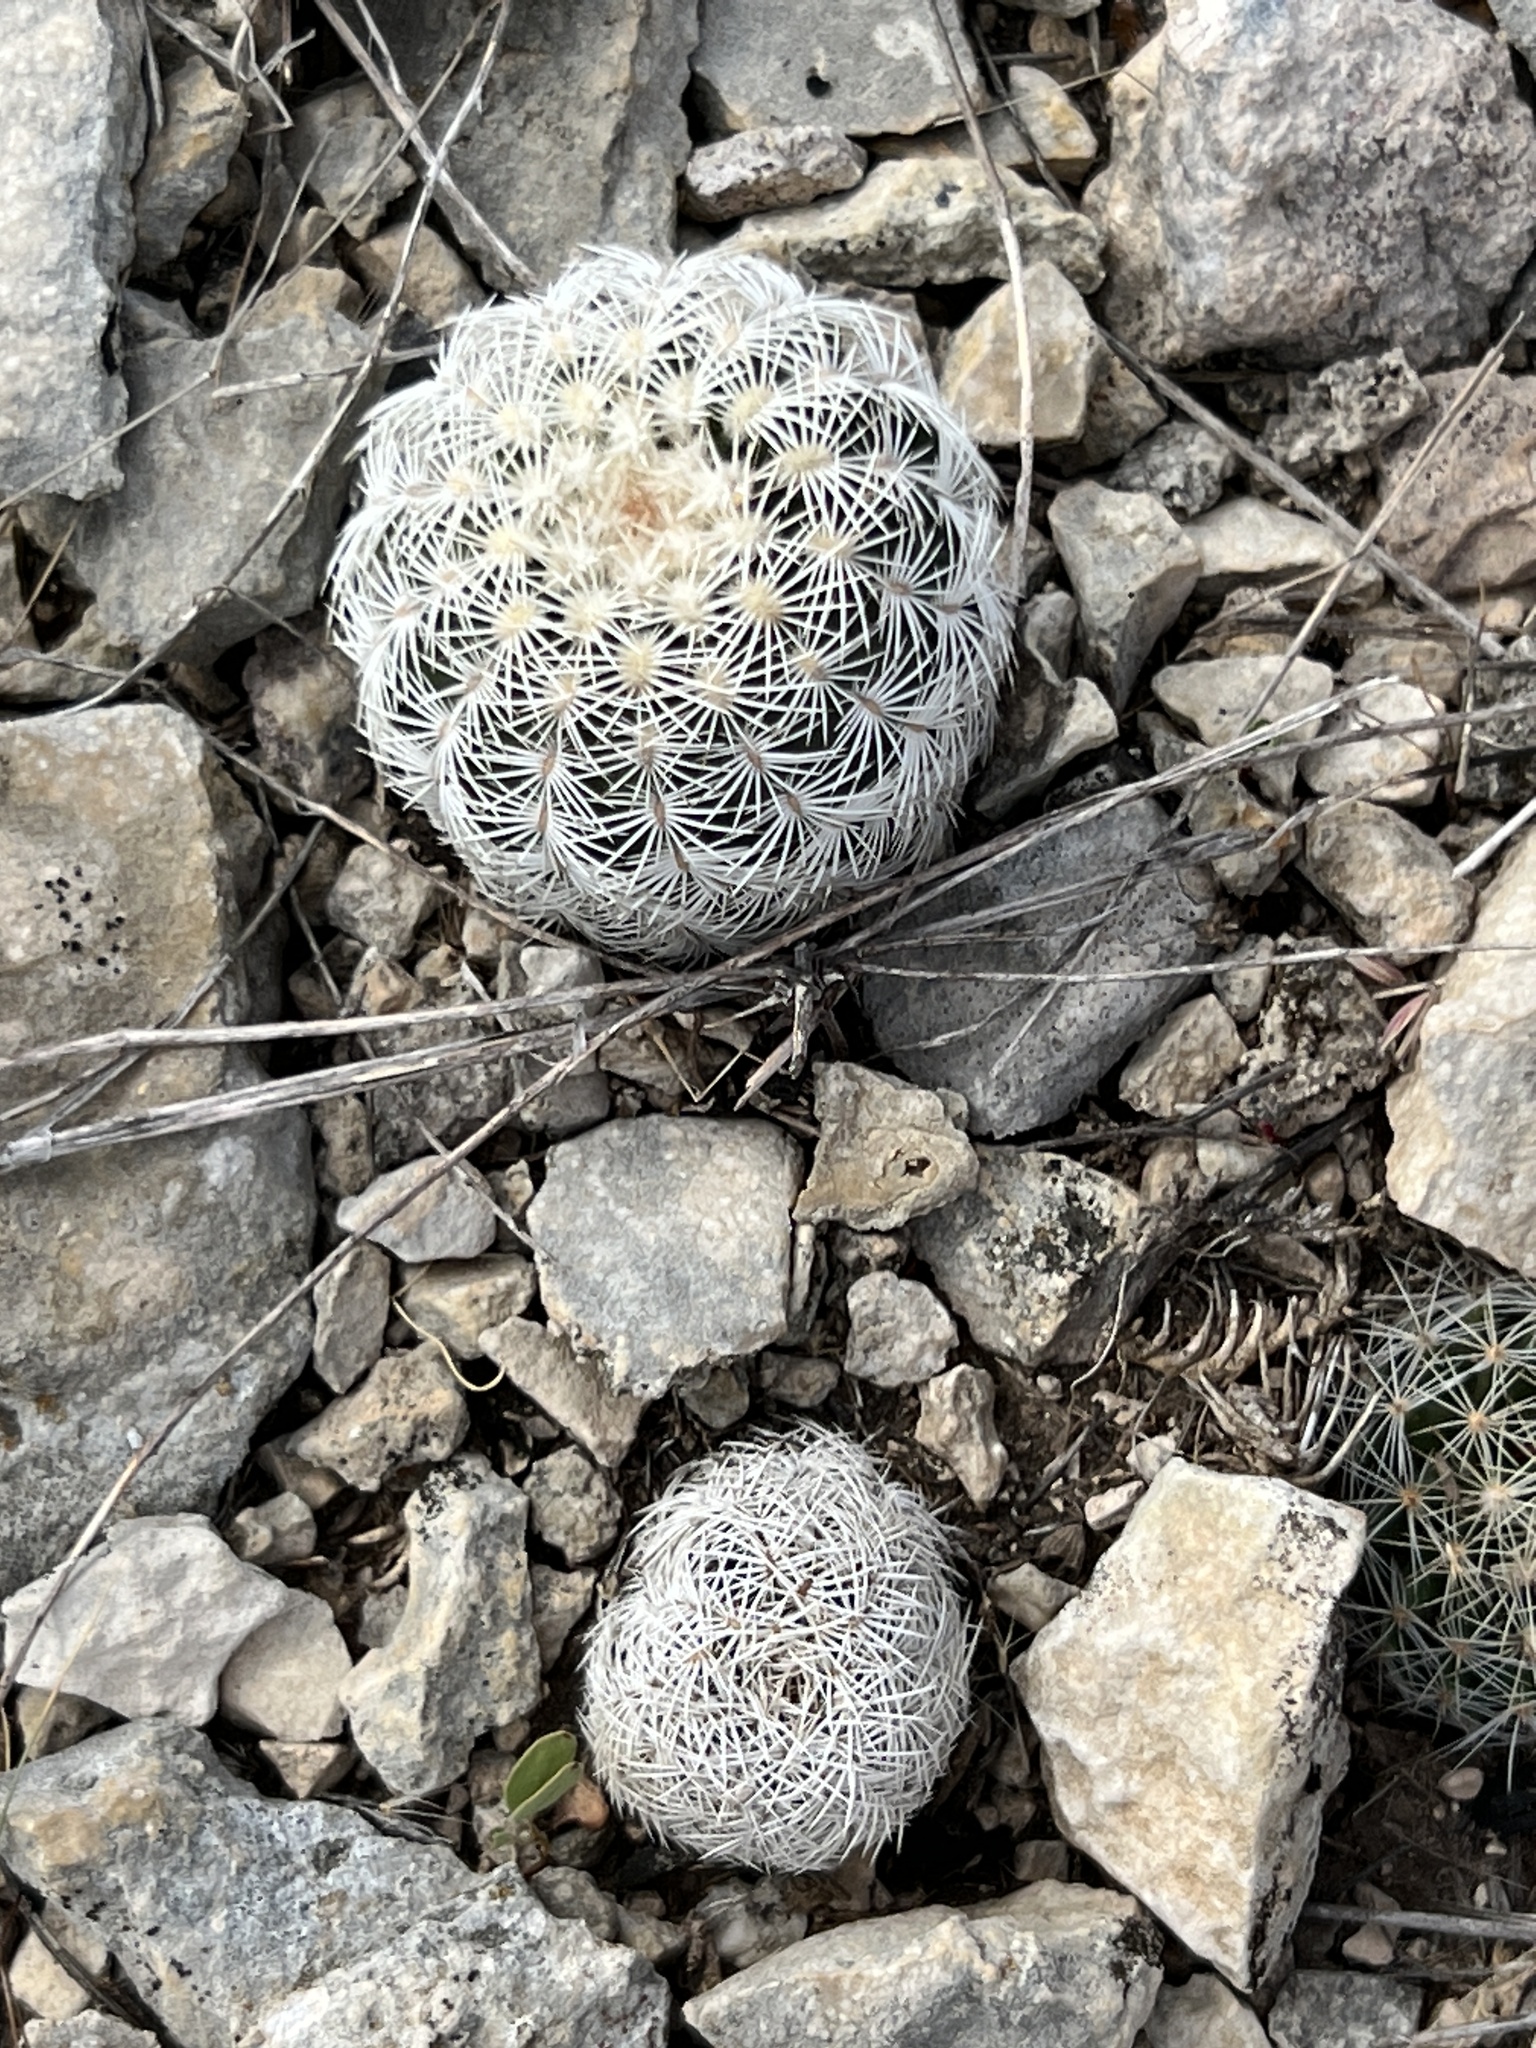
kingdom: Plantae
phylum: Tracheophyta
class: Magnoliopsida
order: Caryophyllales
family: Cactaceae
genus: Echinocereus
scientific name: Echinocereus reichenbachii
